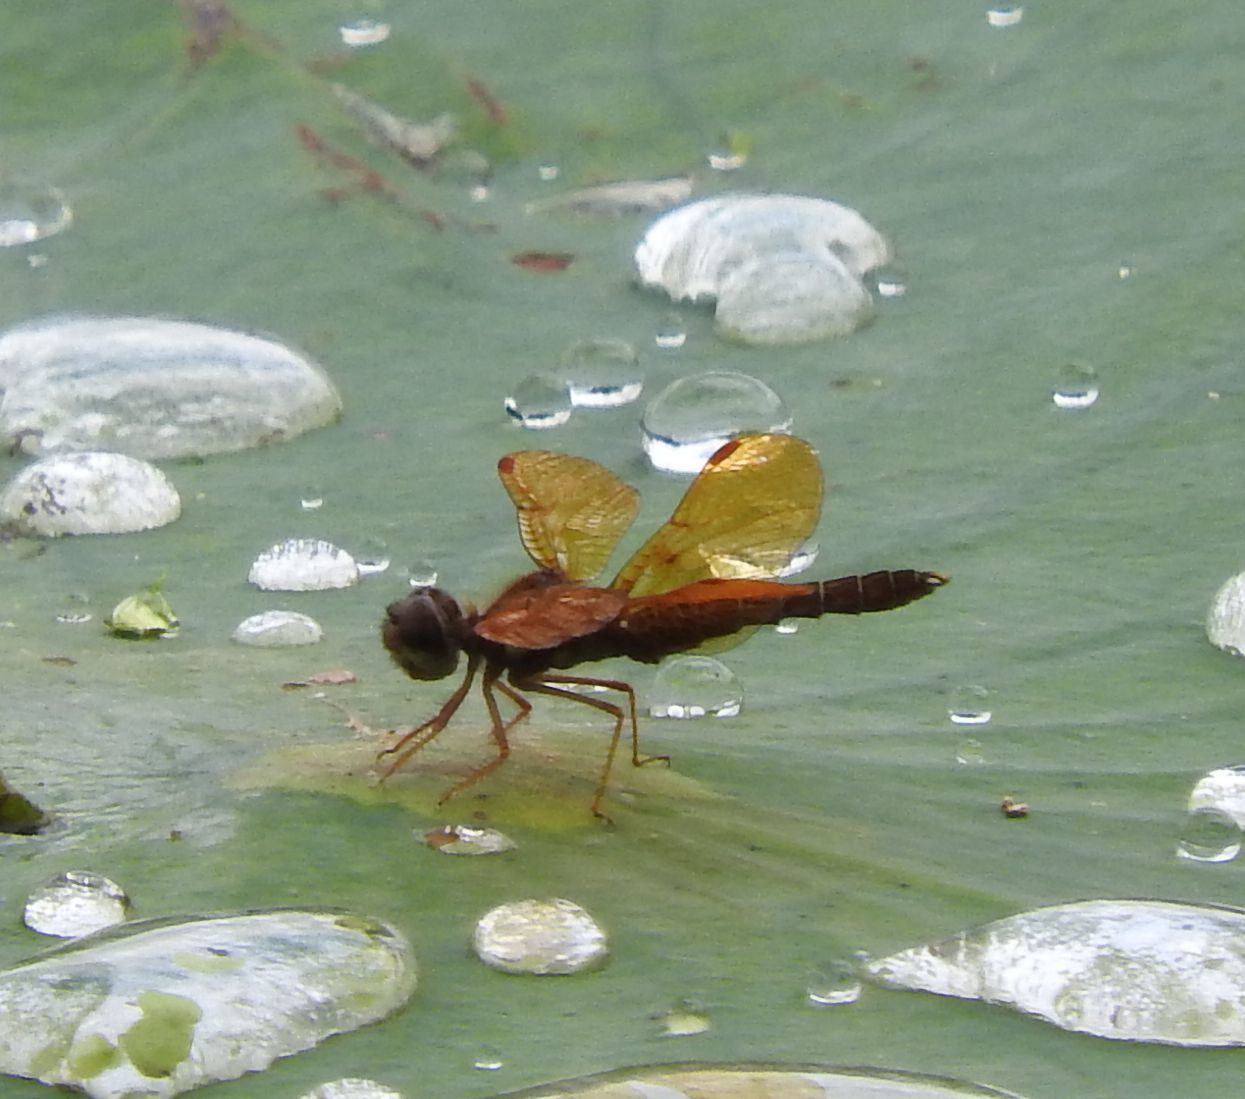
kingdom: Animalia
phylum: Arthropoda
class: Insecta
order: Odonata
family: Libellulidae
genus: Perithemis
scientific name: Perithemis tenera
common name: Eastern amberwing
